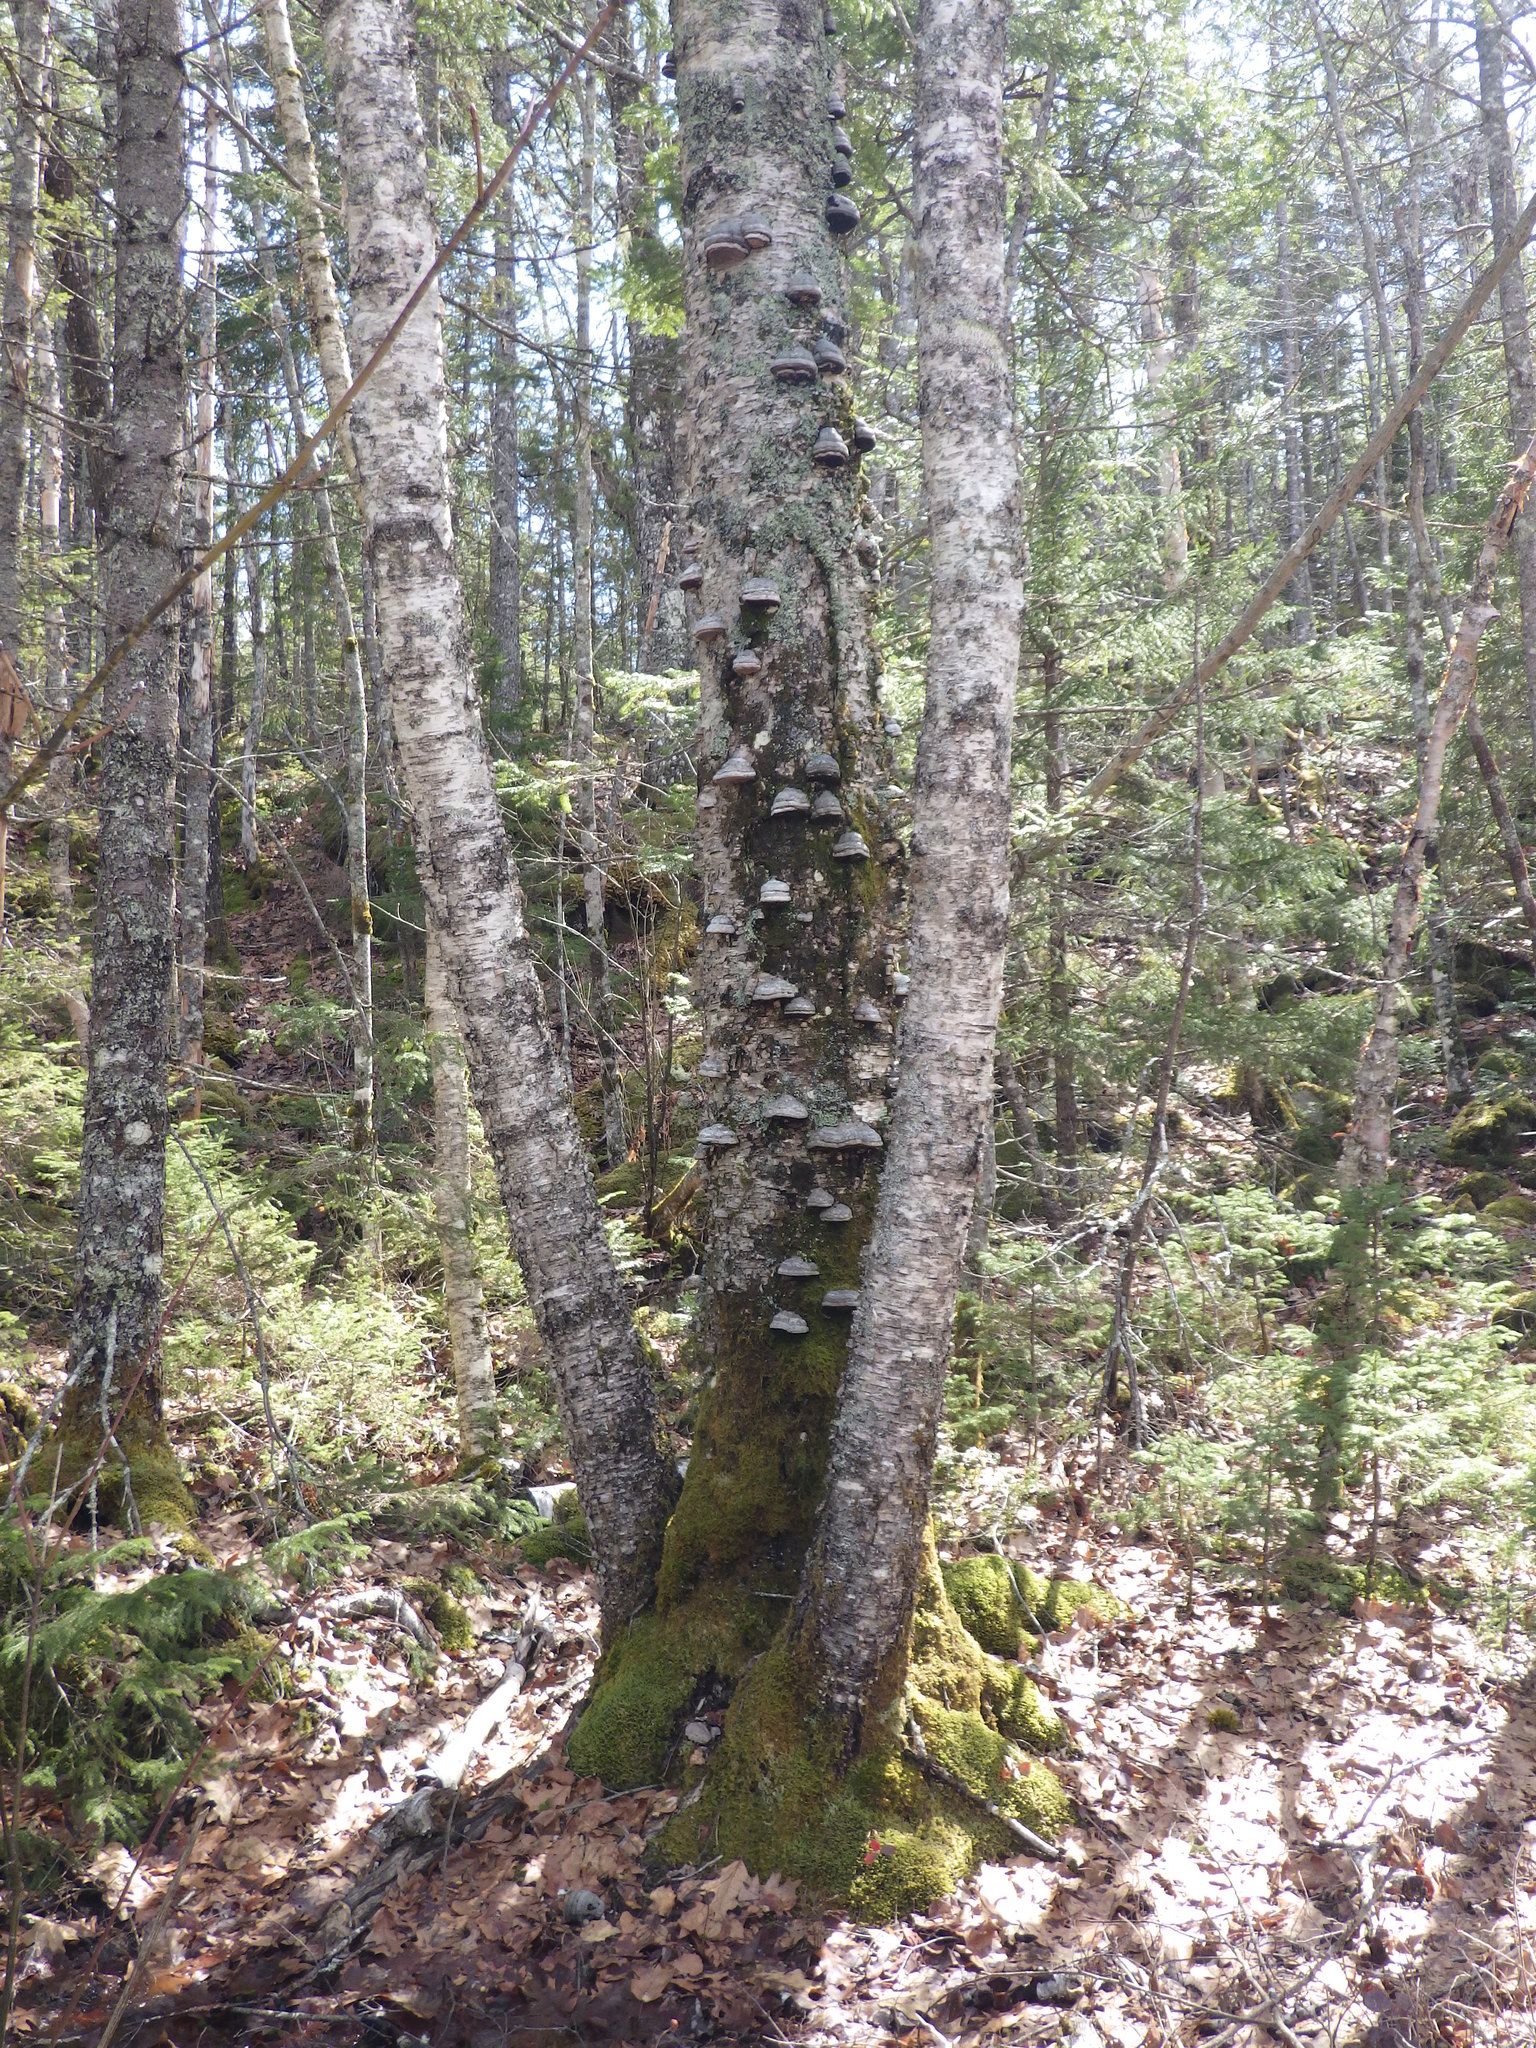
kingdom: Fungi
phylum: Basidiomycota
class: Agaricomycetes
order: Polyporales
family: Polyporaceae
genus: Fomes
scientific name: Fomes fomentarius
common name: Hoof fungus
